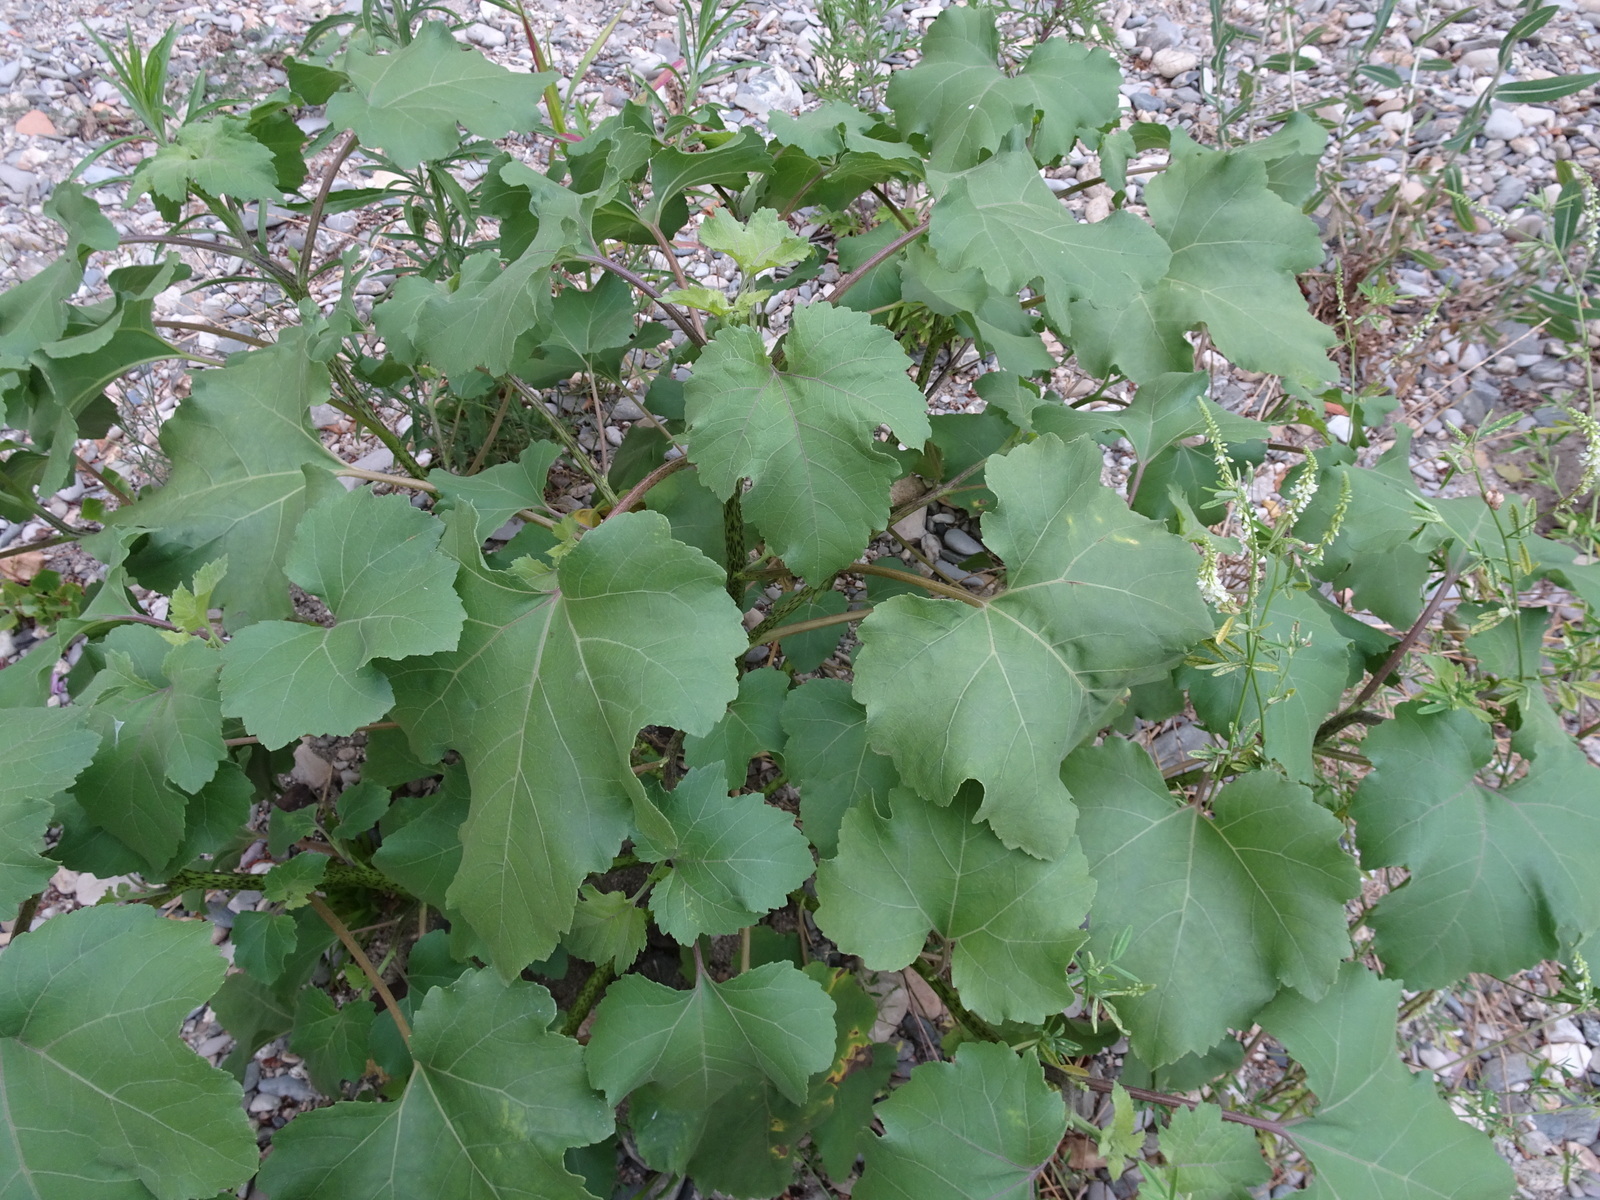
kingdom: Plantae
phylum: Tracheophyta
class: Magnoliopsida
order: Asterales
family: Asteraceae
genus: Xanthium
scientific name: Xanthium orientale
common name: Californian burr
